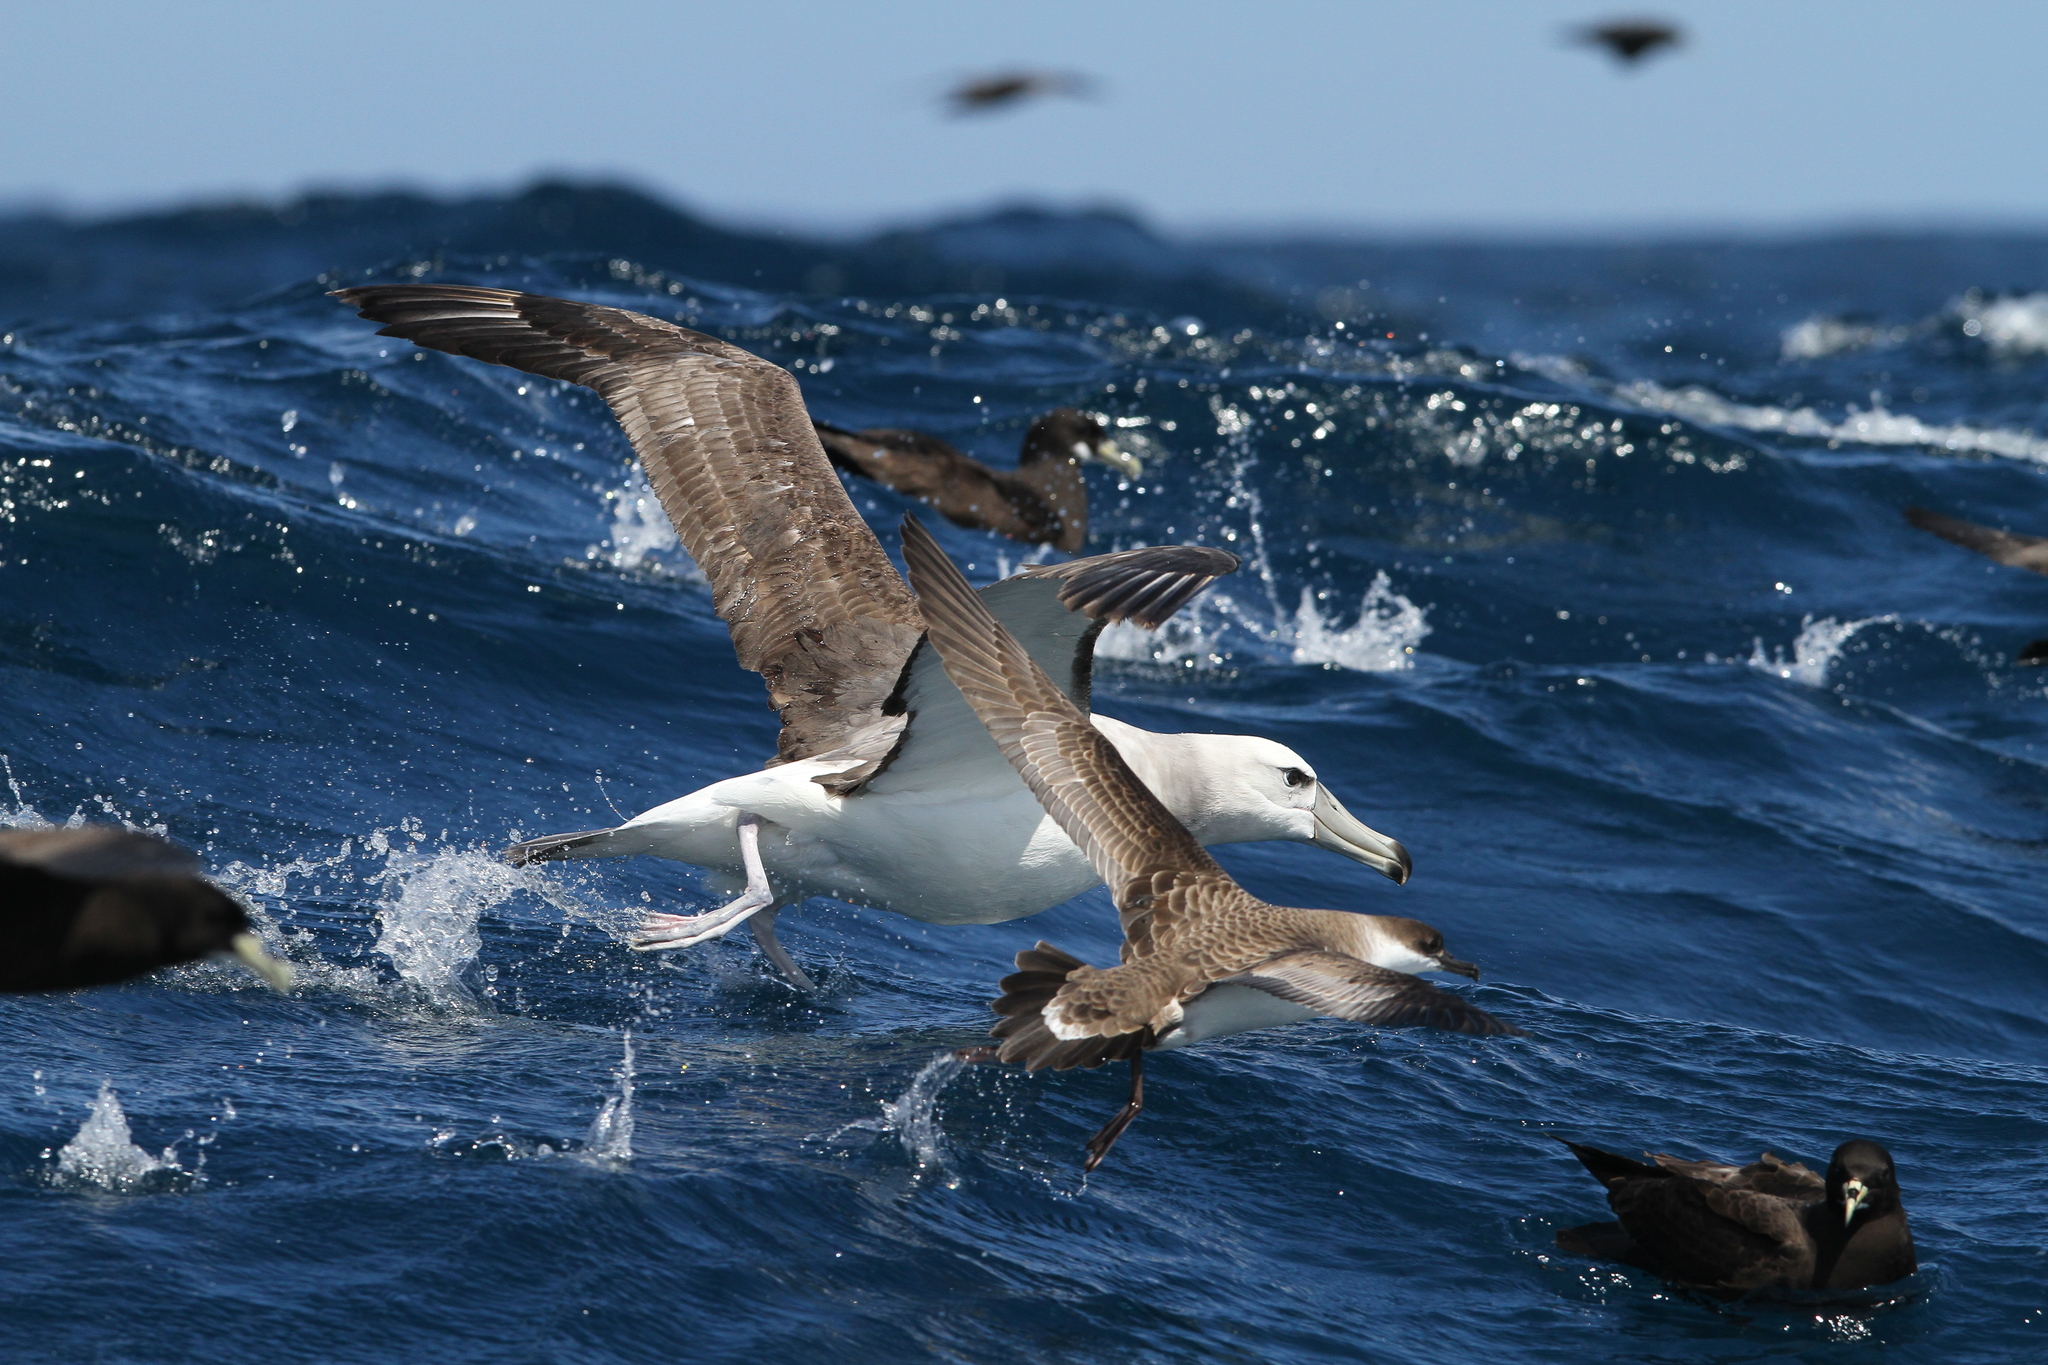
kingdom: Animalia
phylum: Chordata
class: Aves
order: Procellariiformes
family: Diomedeidae
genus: Thalassarche
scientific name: Thalassarche cauta
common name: Shy albatross
